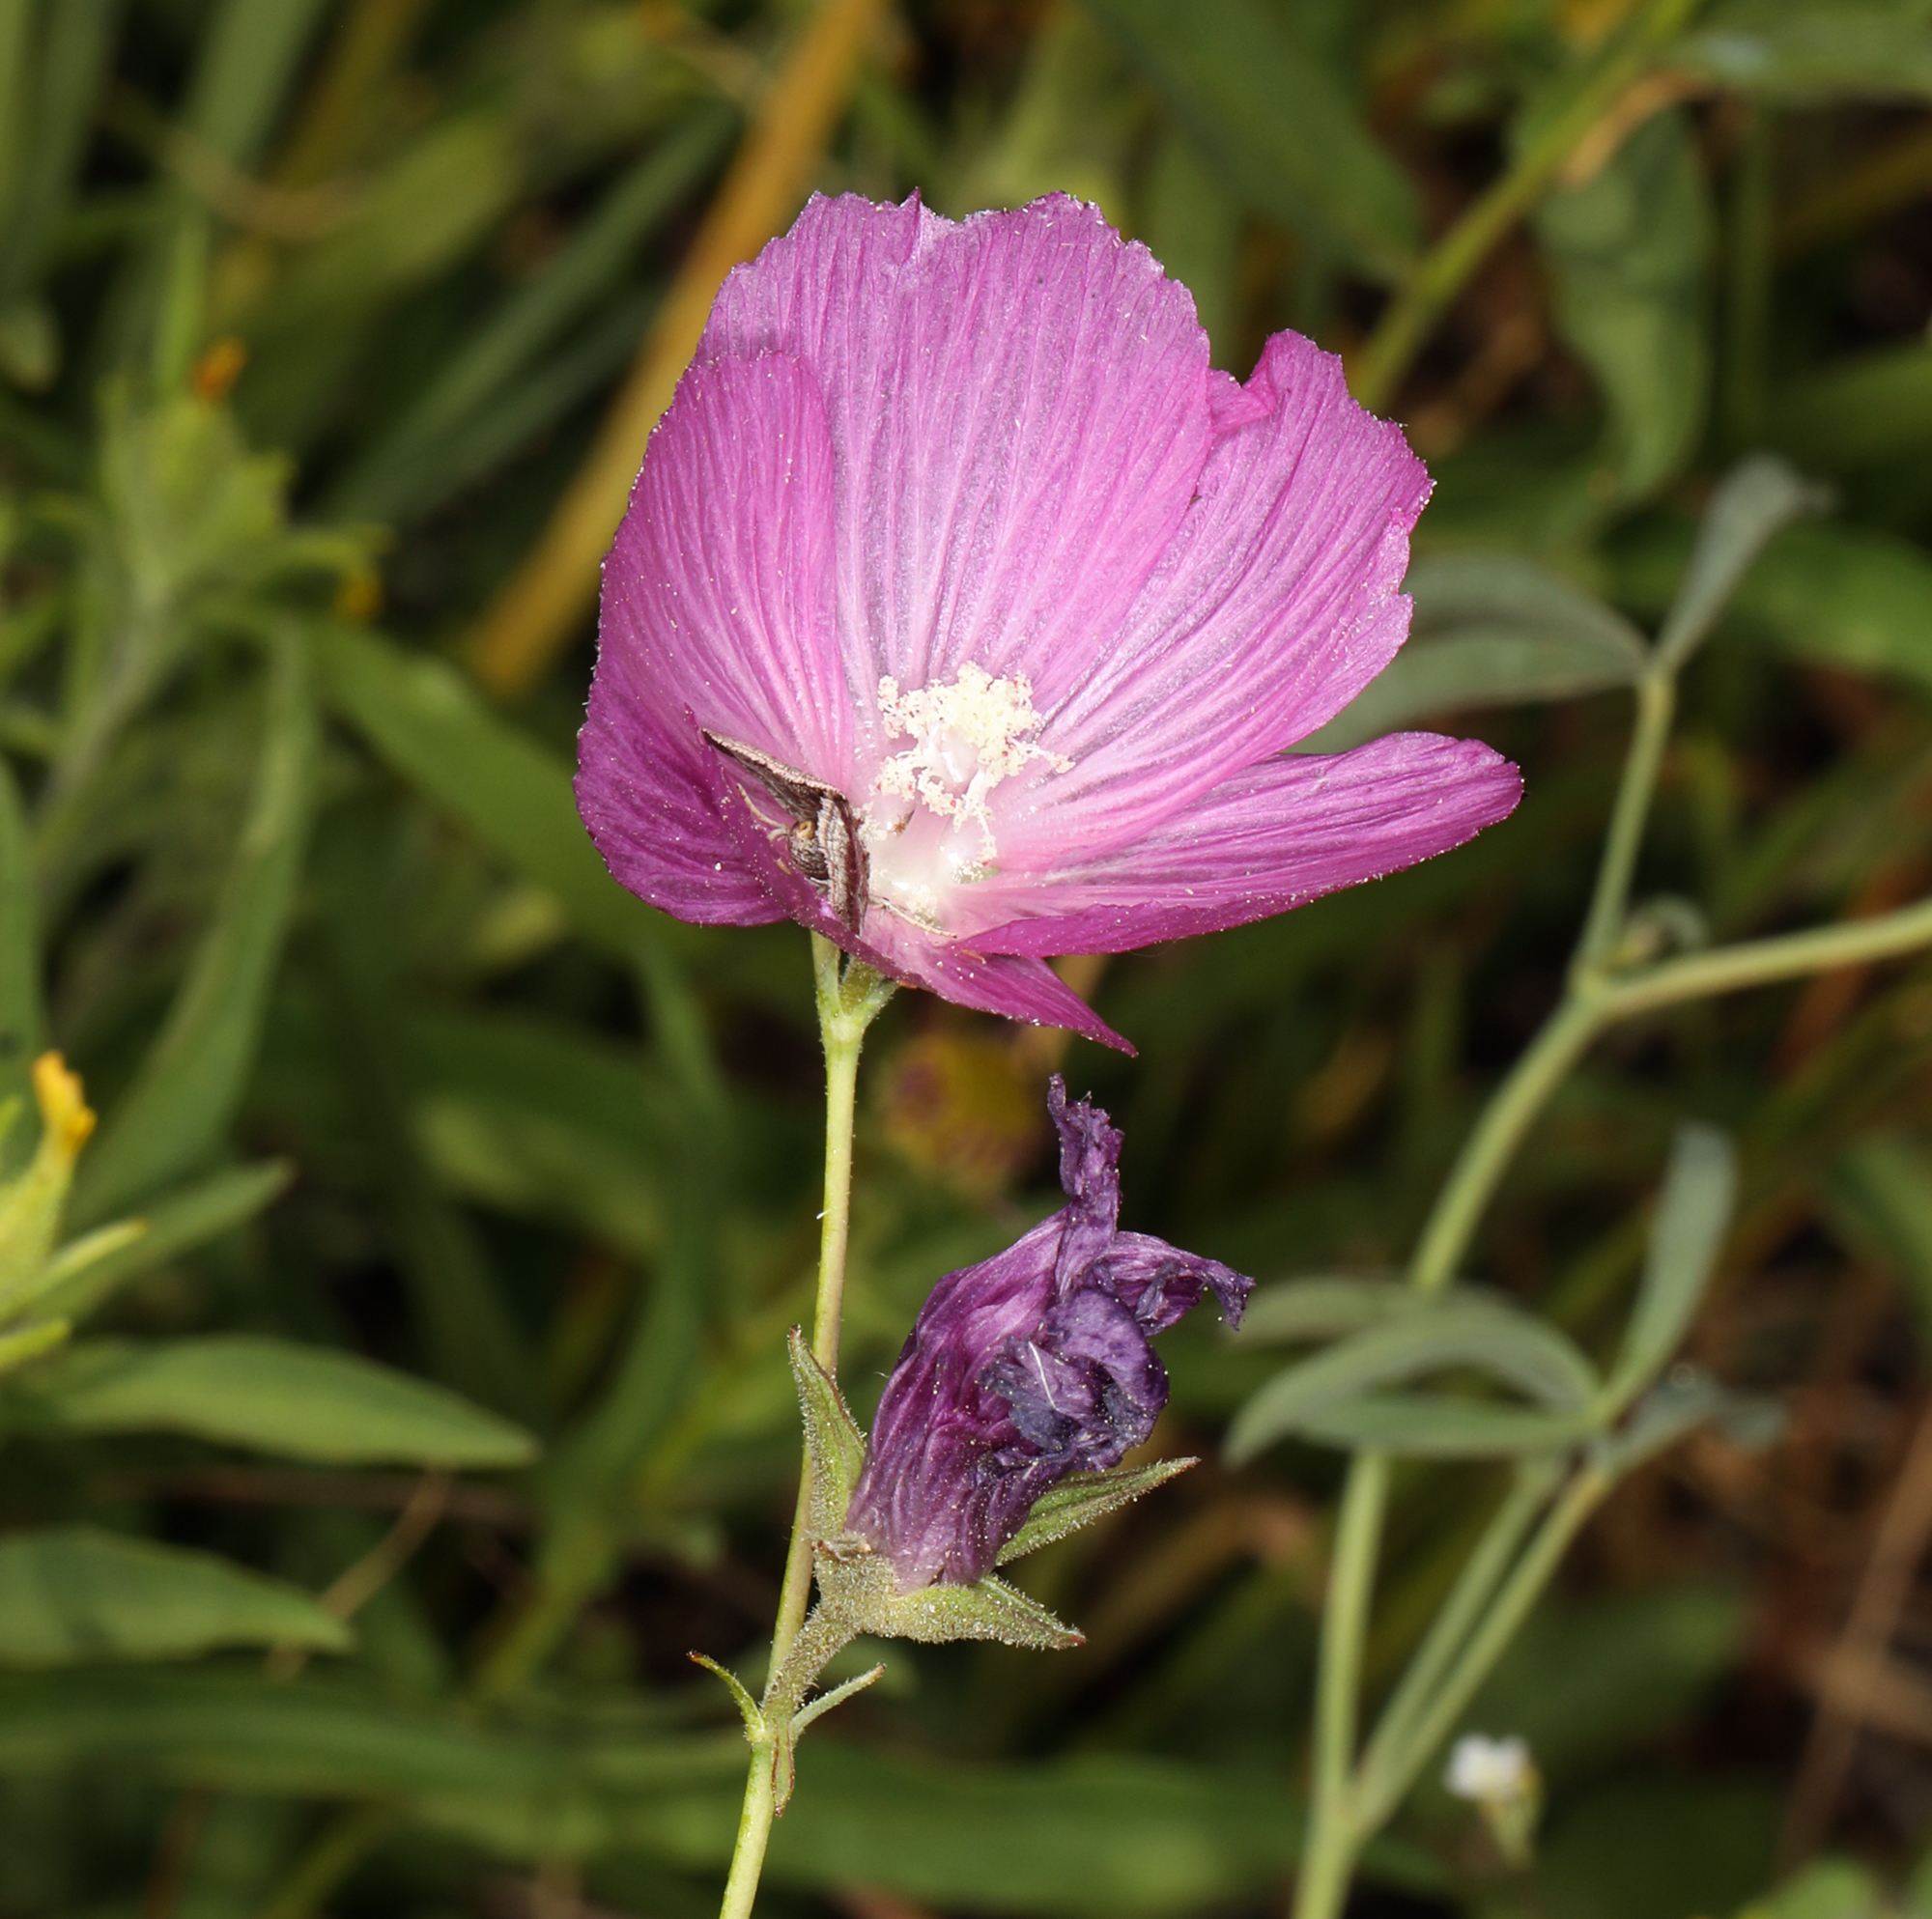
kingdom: Plantae
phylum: Tracheophyta
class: Magnoliopsida
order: Malvales
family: Malvaceae
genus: Sidalcea
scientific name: Sidalcea glaucescens
